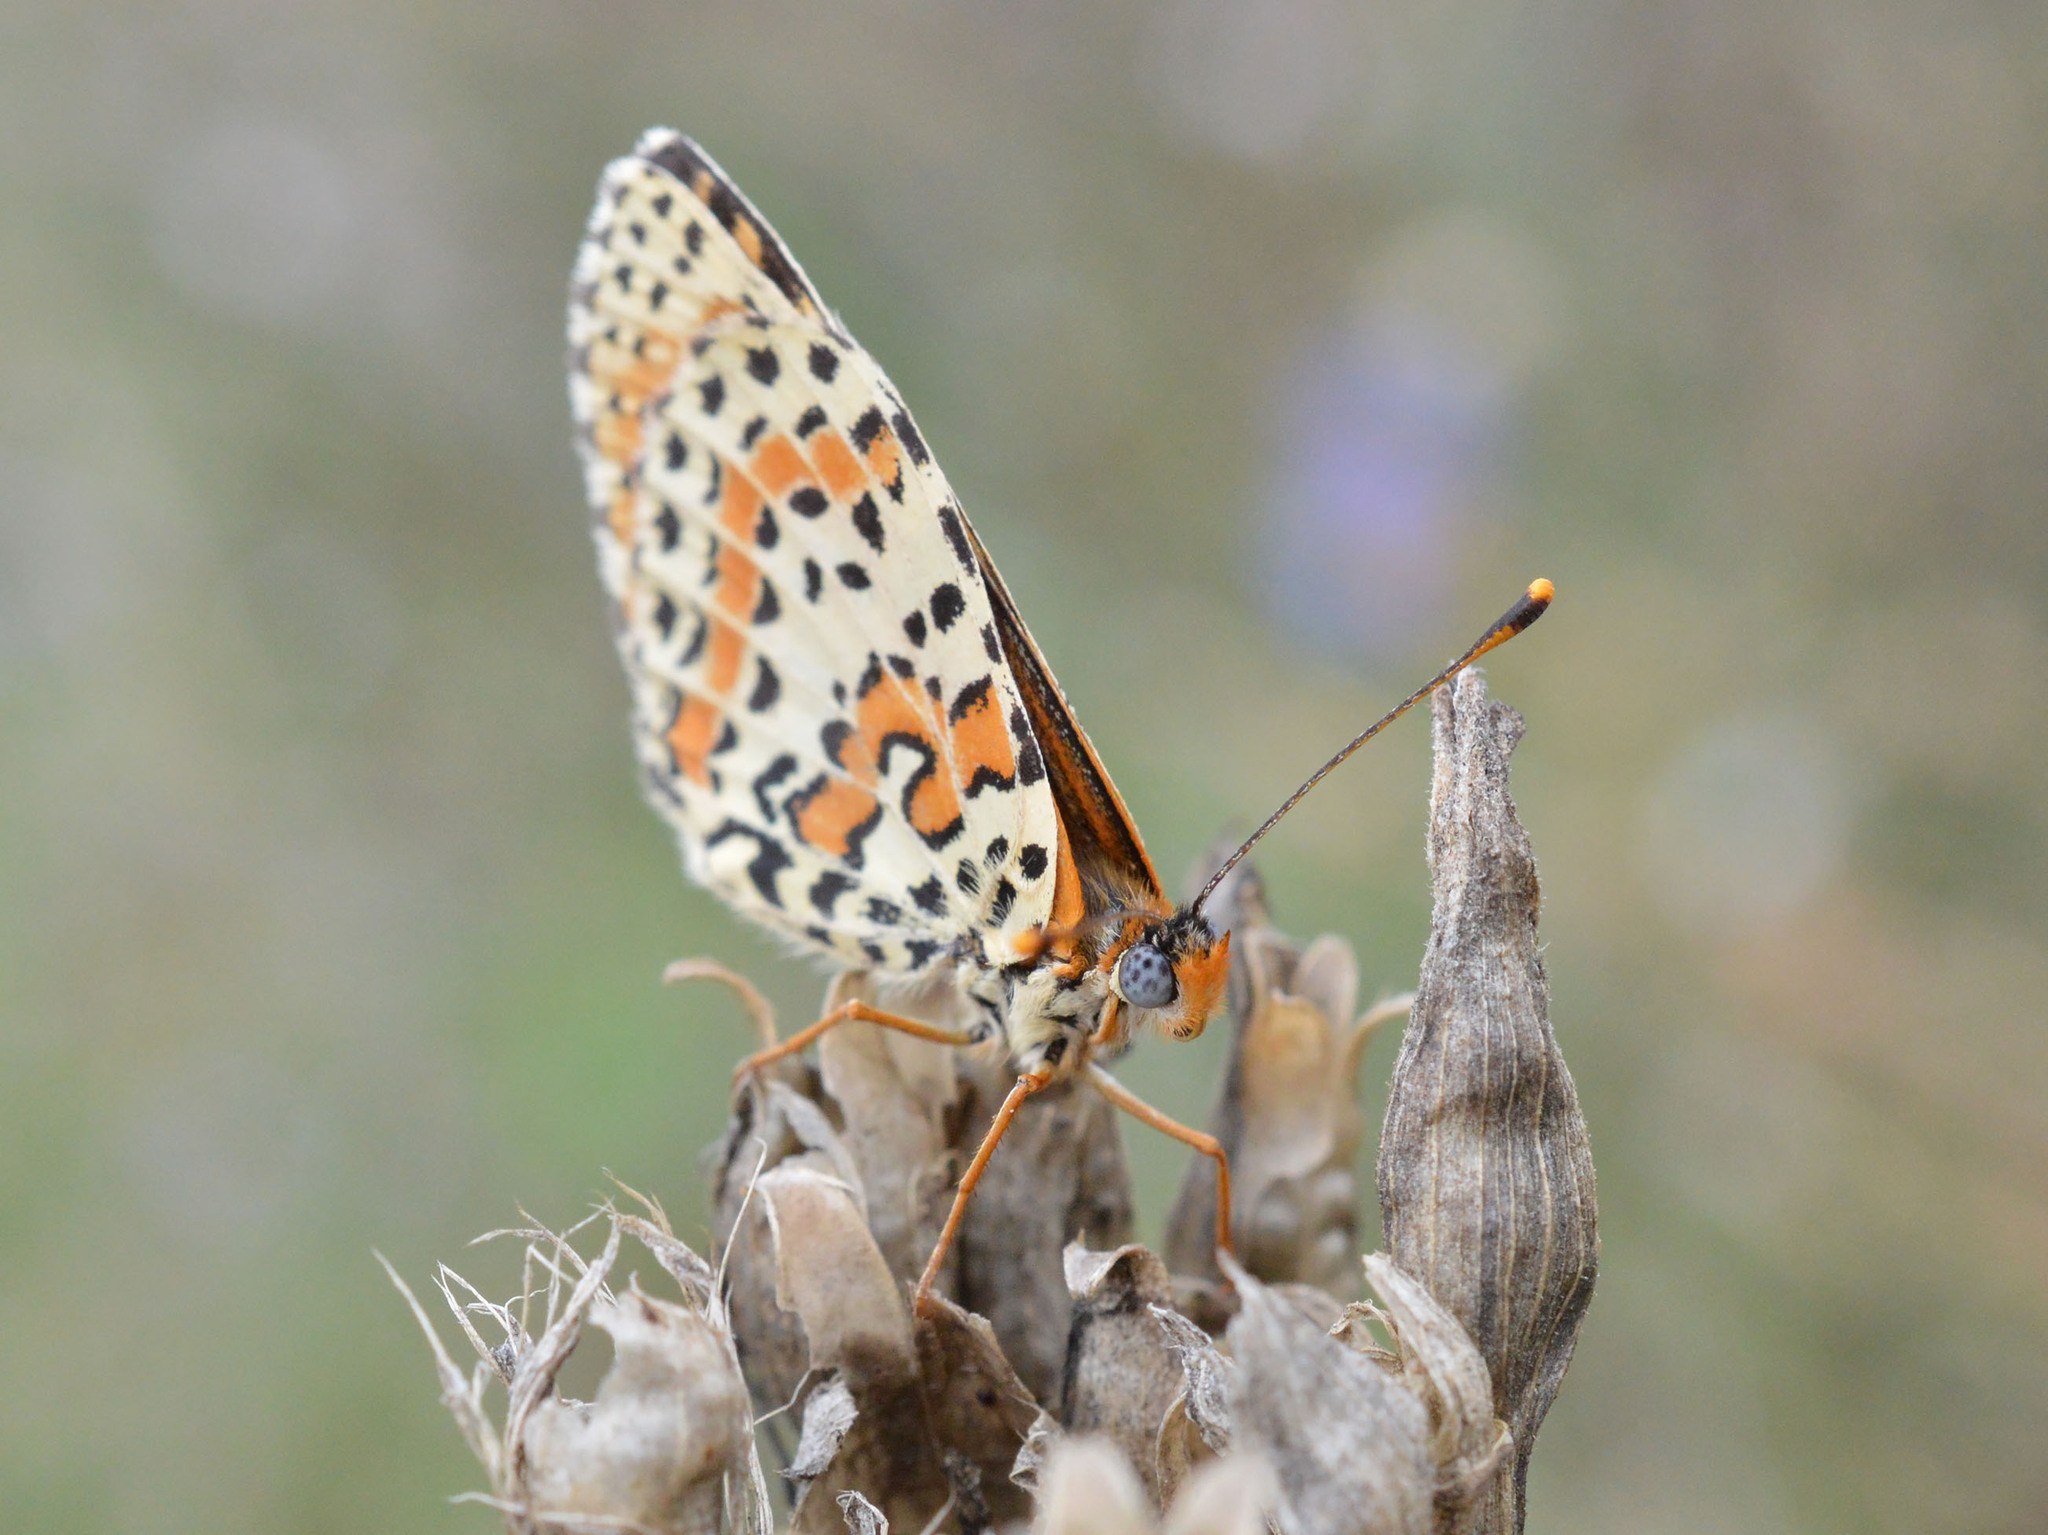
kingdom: Animalia
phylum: Arthropoda
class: Insecta
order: Lepidoptera
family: Nymphalidae
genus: Melitaea
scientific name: Melitaea didyma
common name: Spotted fritillary
